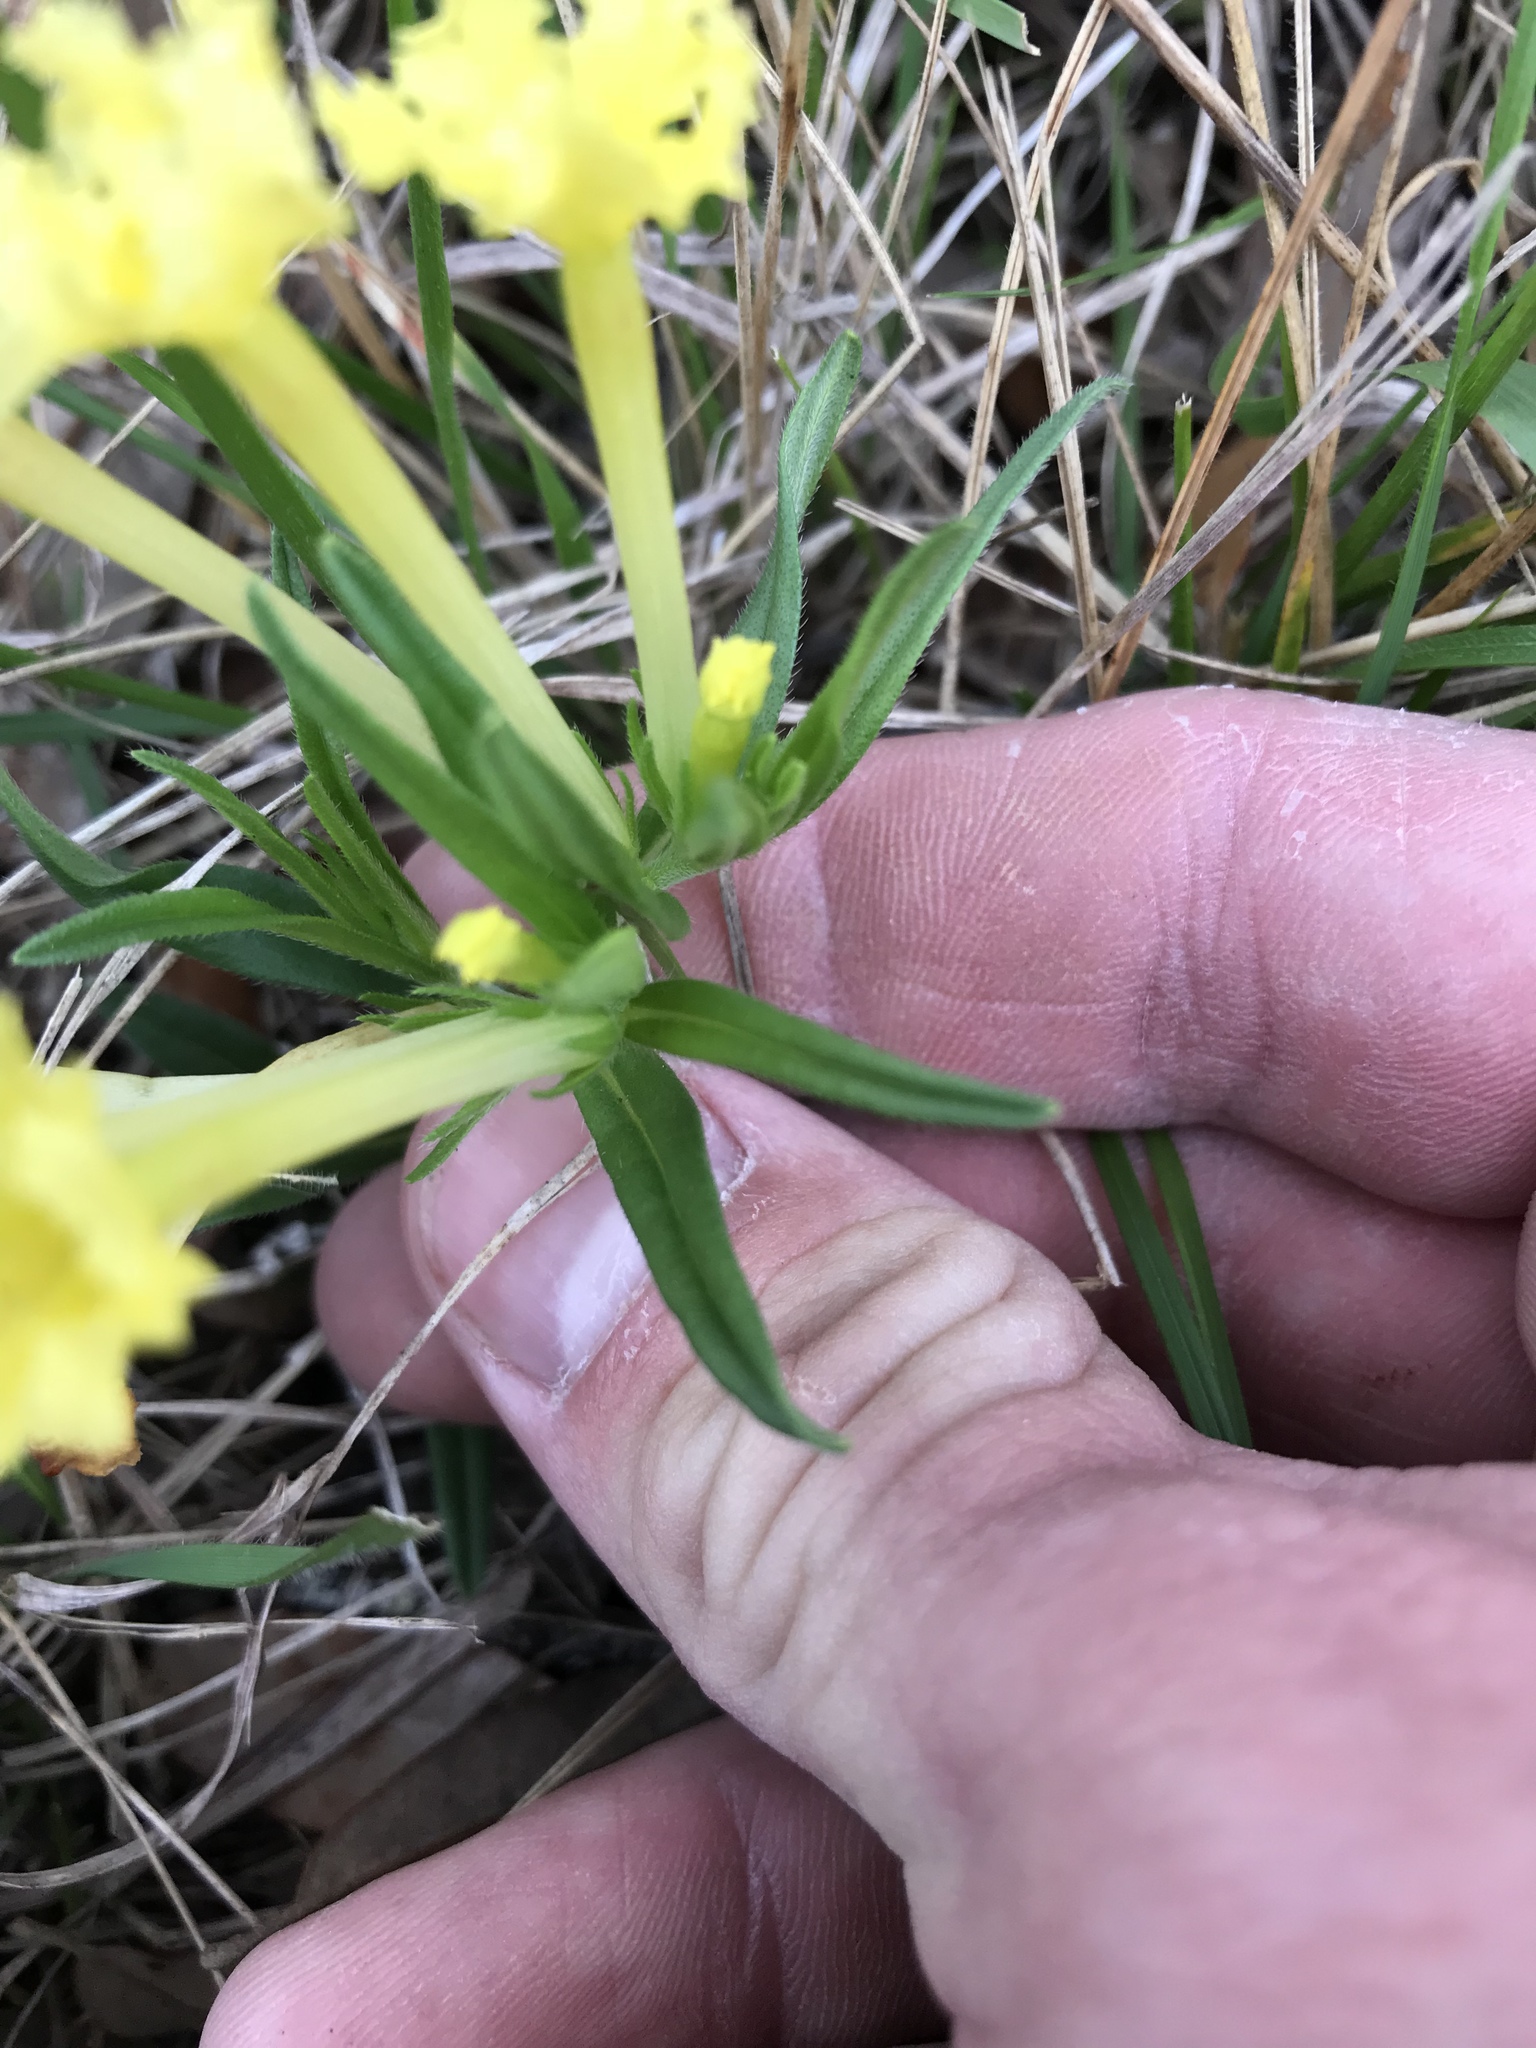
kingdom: Plantae
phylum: Tracheophyta
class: Magnoliopsida
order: Boraginales
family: Boraginaceae
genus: Lithospermum
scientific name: Lithospermum incisum
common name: Fringed gromwell
